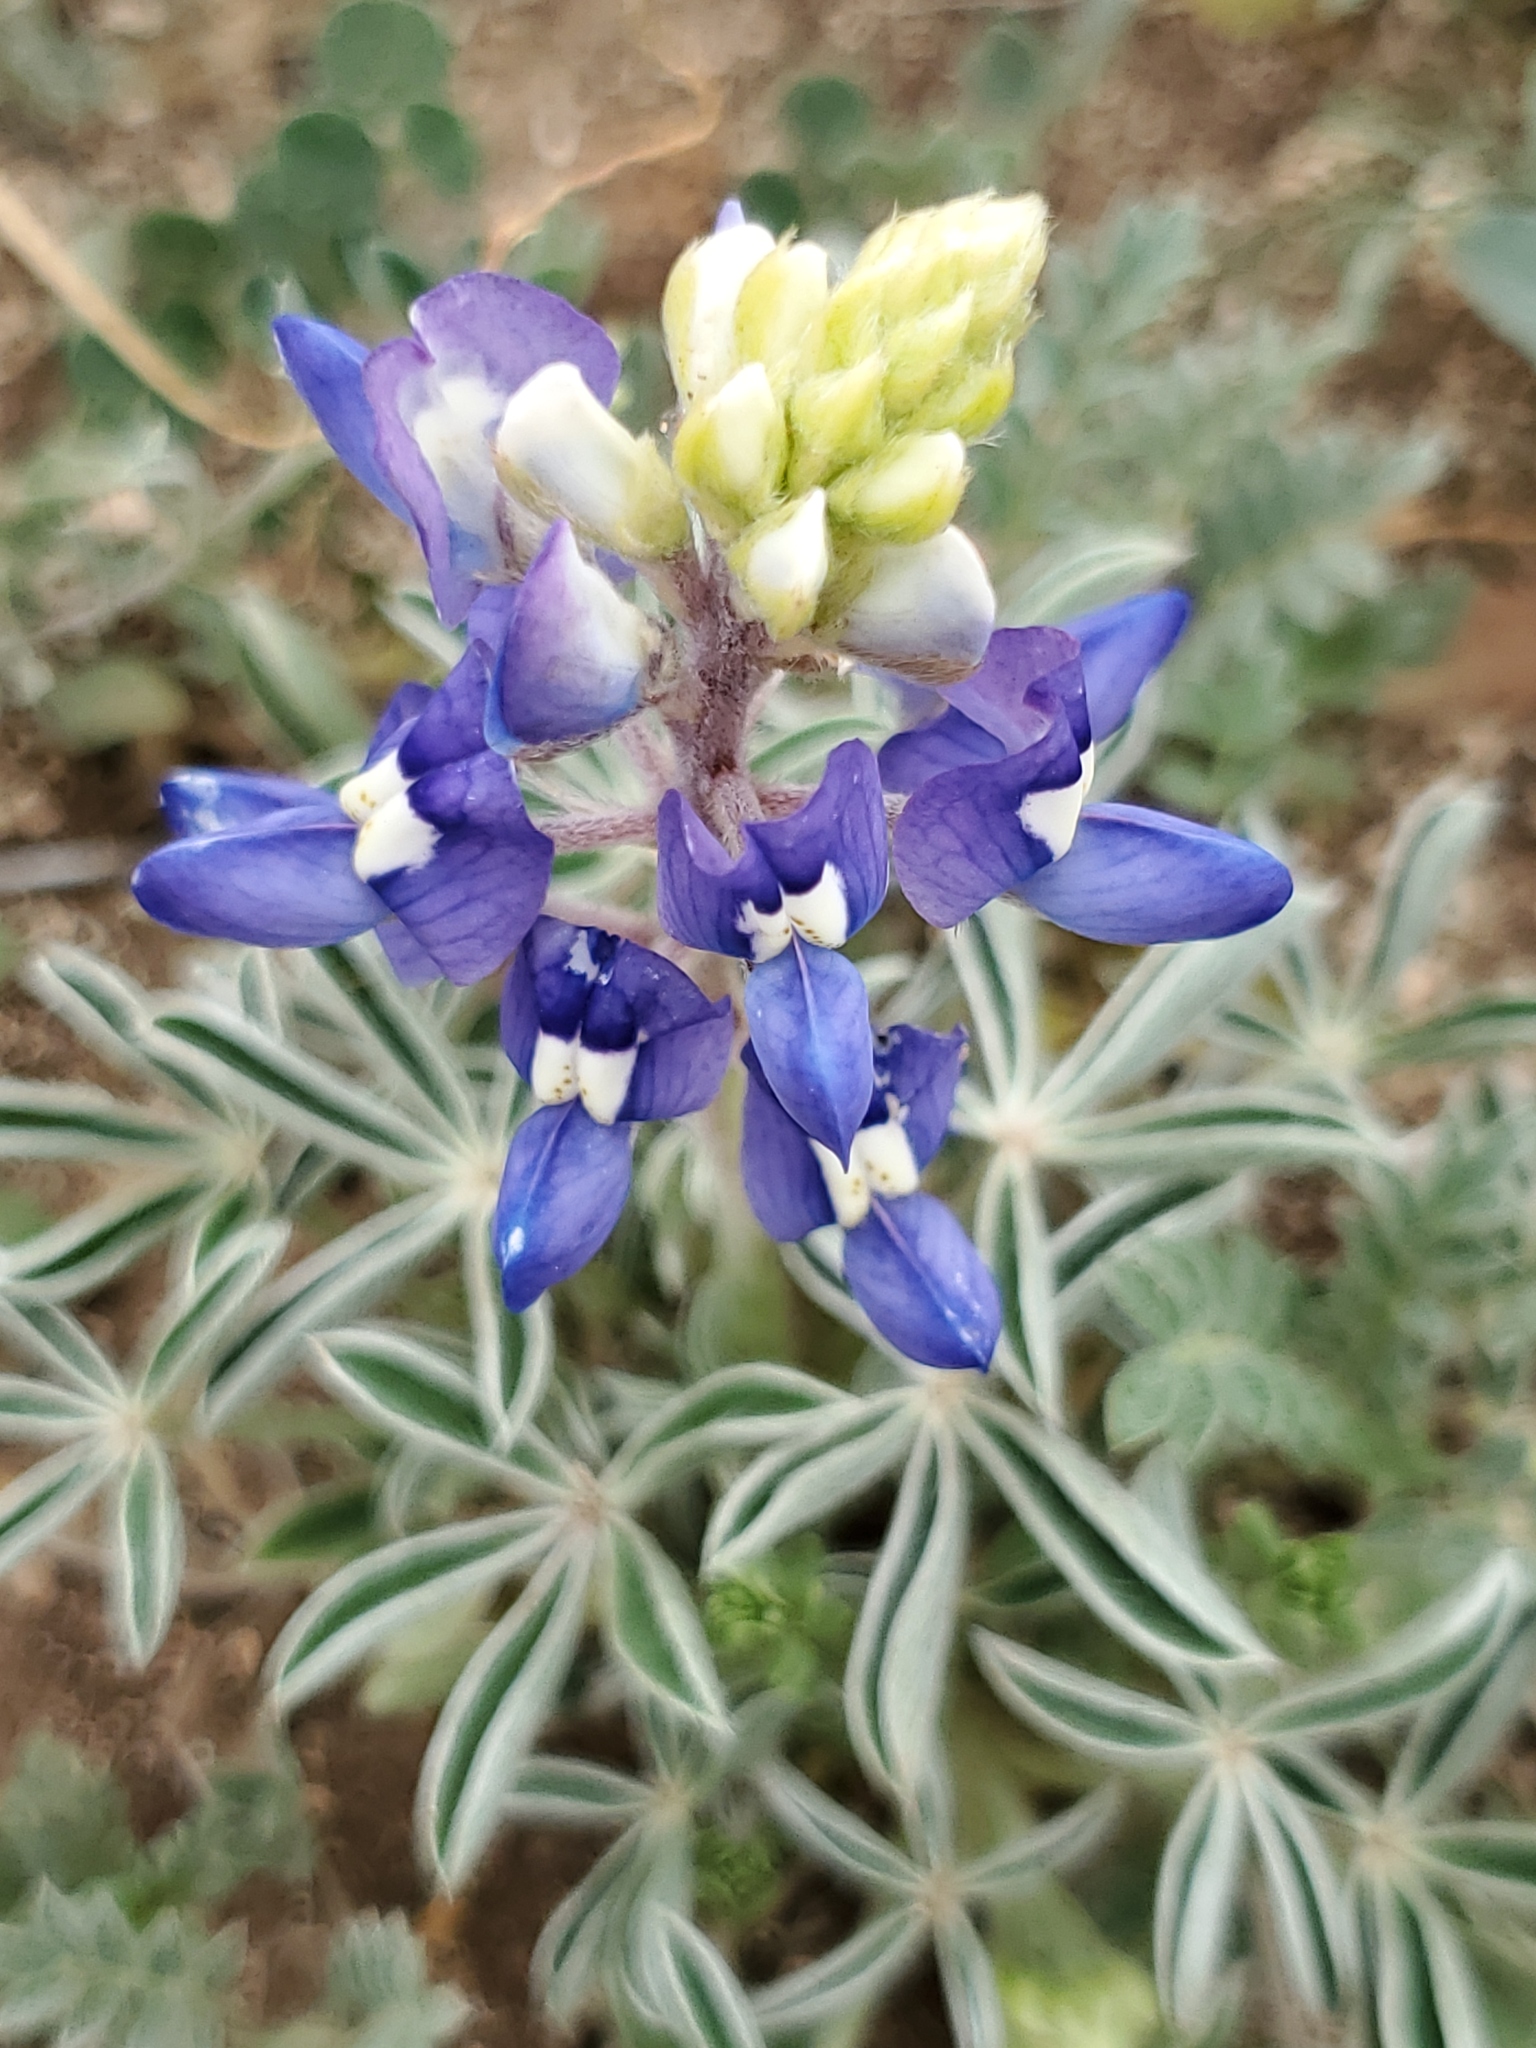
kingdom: Plantae
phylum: Tracheophyta
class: Magnoliopsida
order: Fabales
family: Fabaceae
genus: Lupinus
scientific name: Lupinus texensis
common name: Texas bluebonnet
